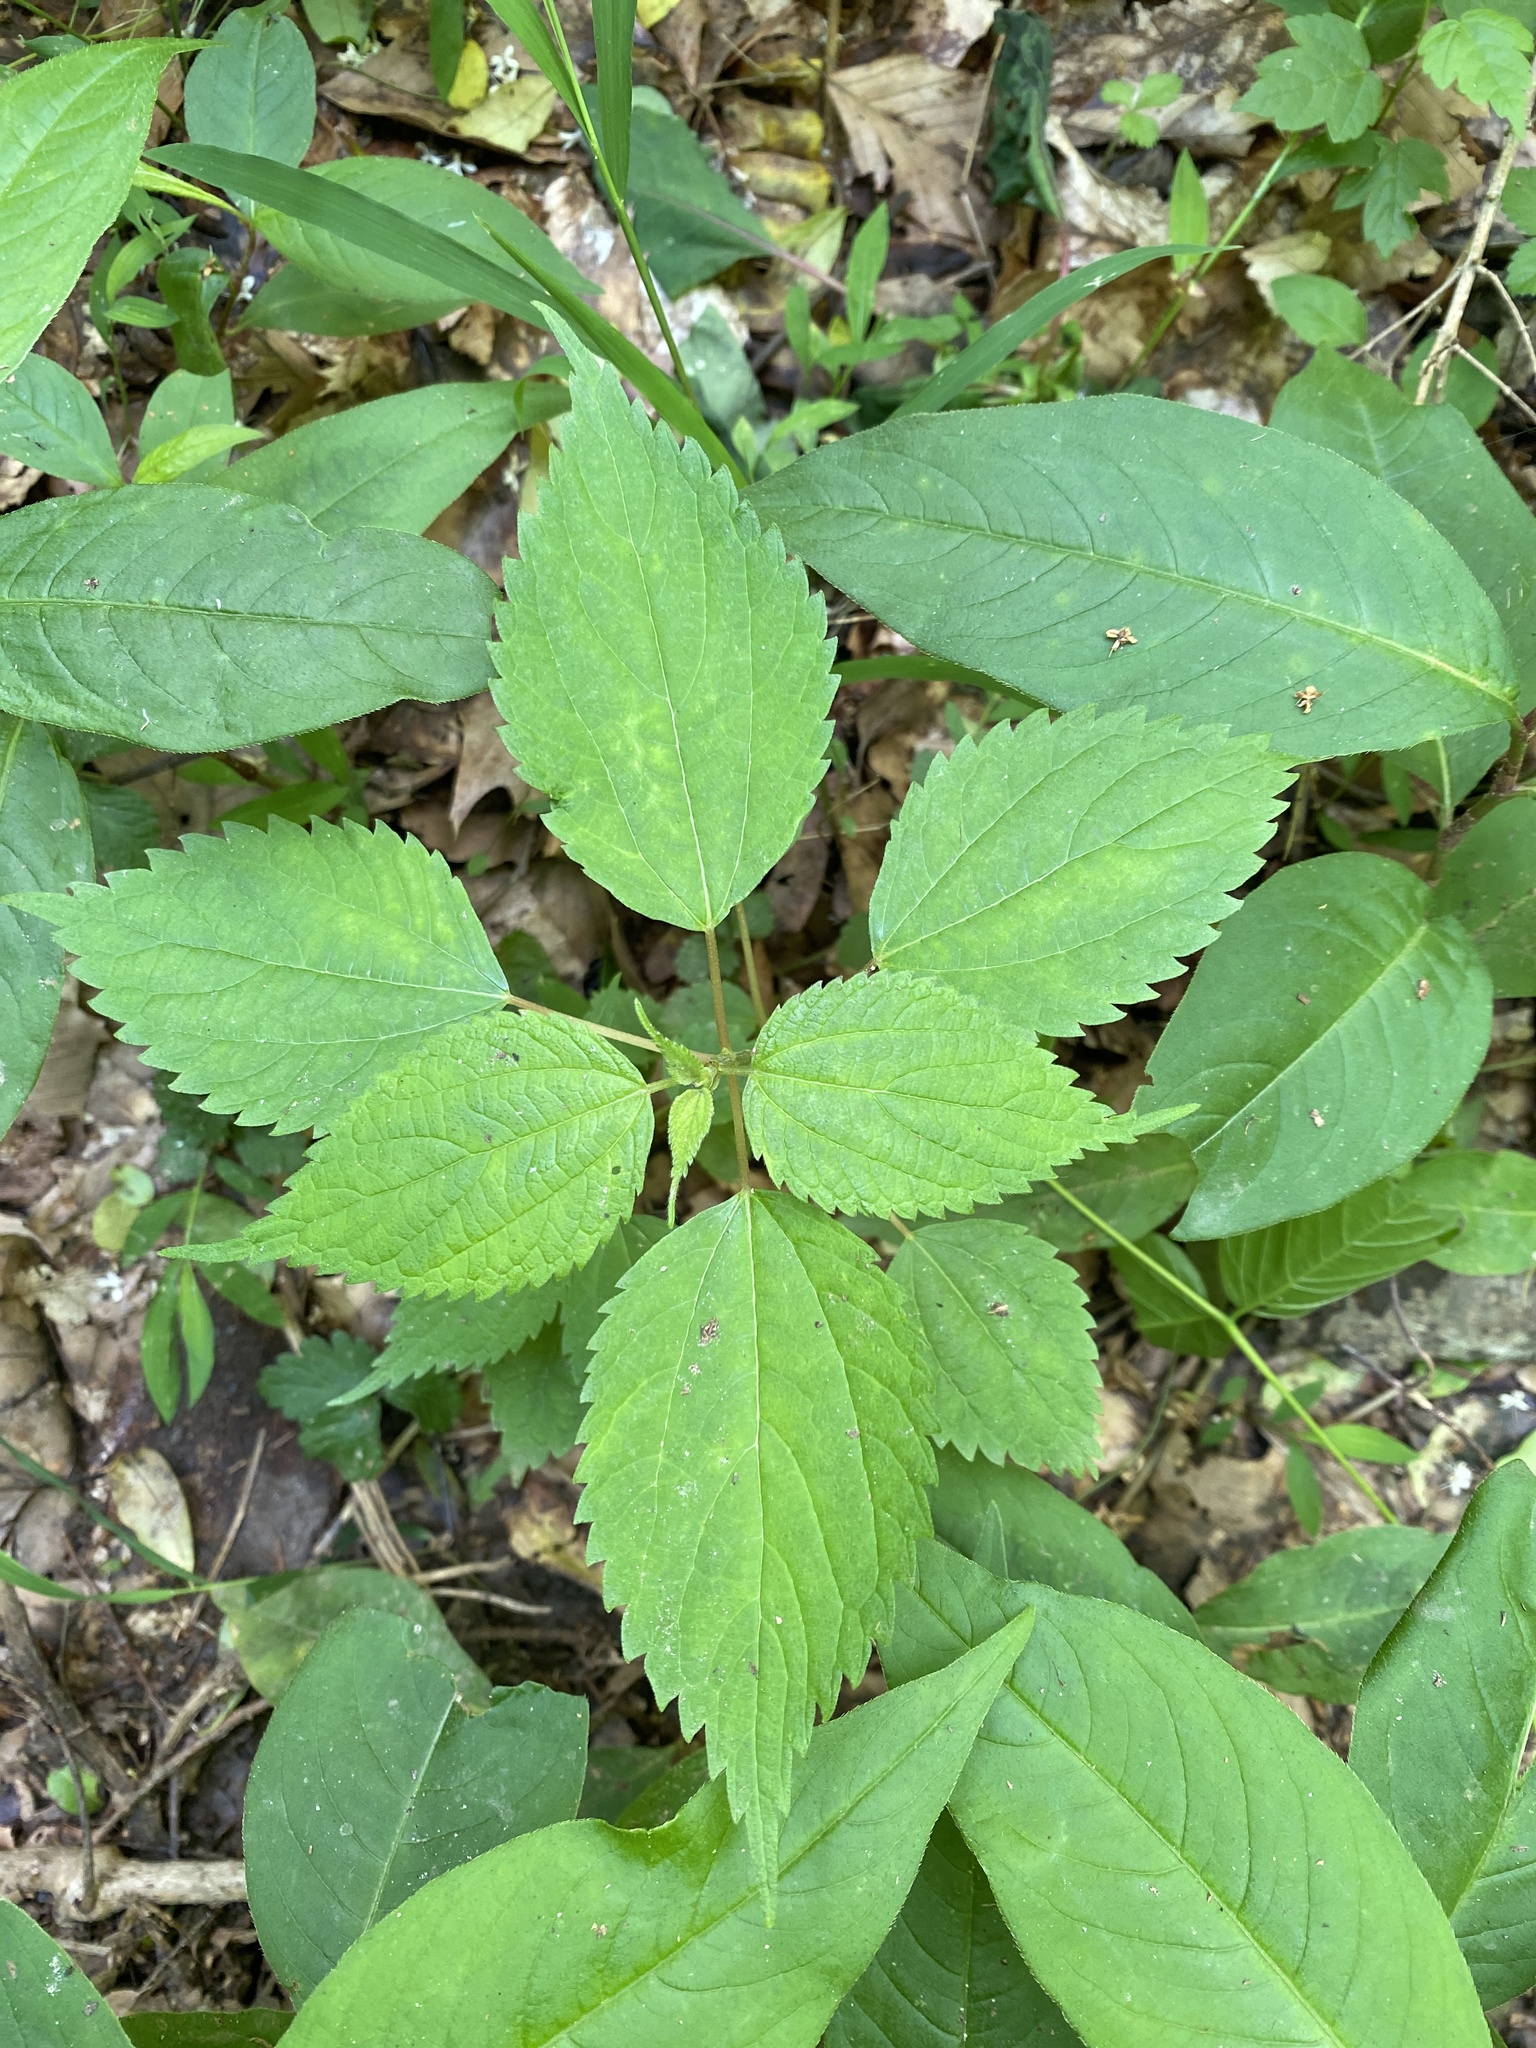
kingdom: Plantae
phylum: Tracheophyta
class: Magnoliopsida
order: Rosales
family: Urticaceae
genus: Boehmeria
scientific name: Boehmeria cylindrica
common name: Bog-hemp
